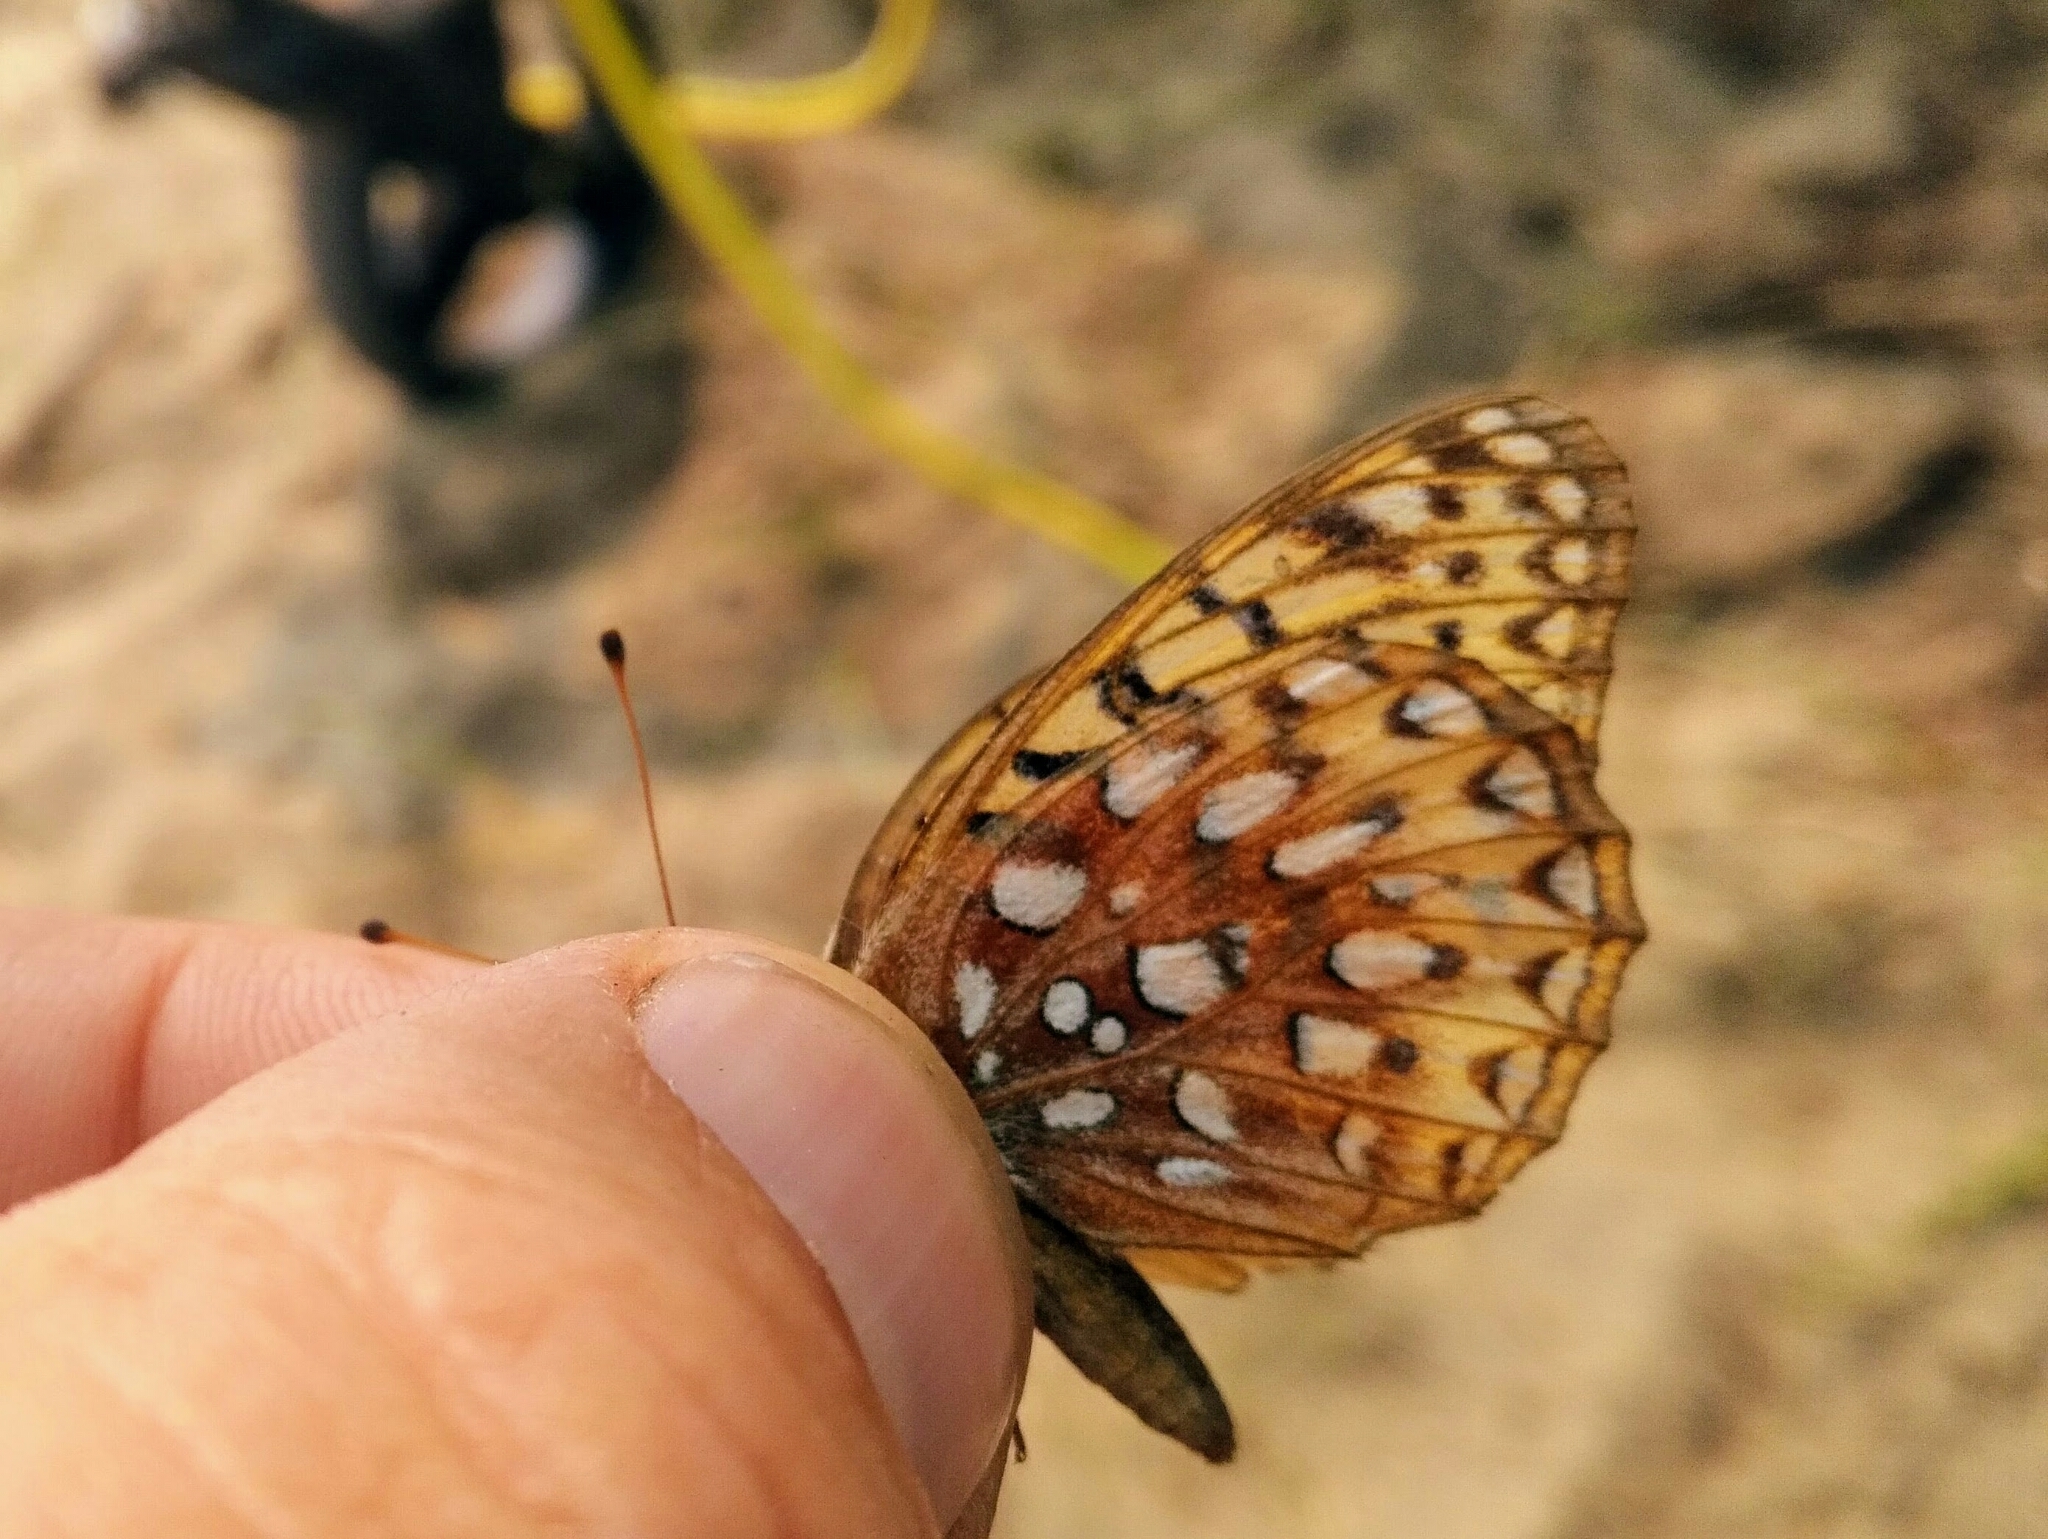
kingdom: Animalia
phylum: Arthropoda
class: Insecta
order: Lepidoptera
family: Nymphalidae
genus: Speyeria
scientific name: Speyeria aphrodite
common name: Aphrodite friitllary
